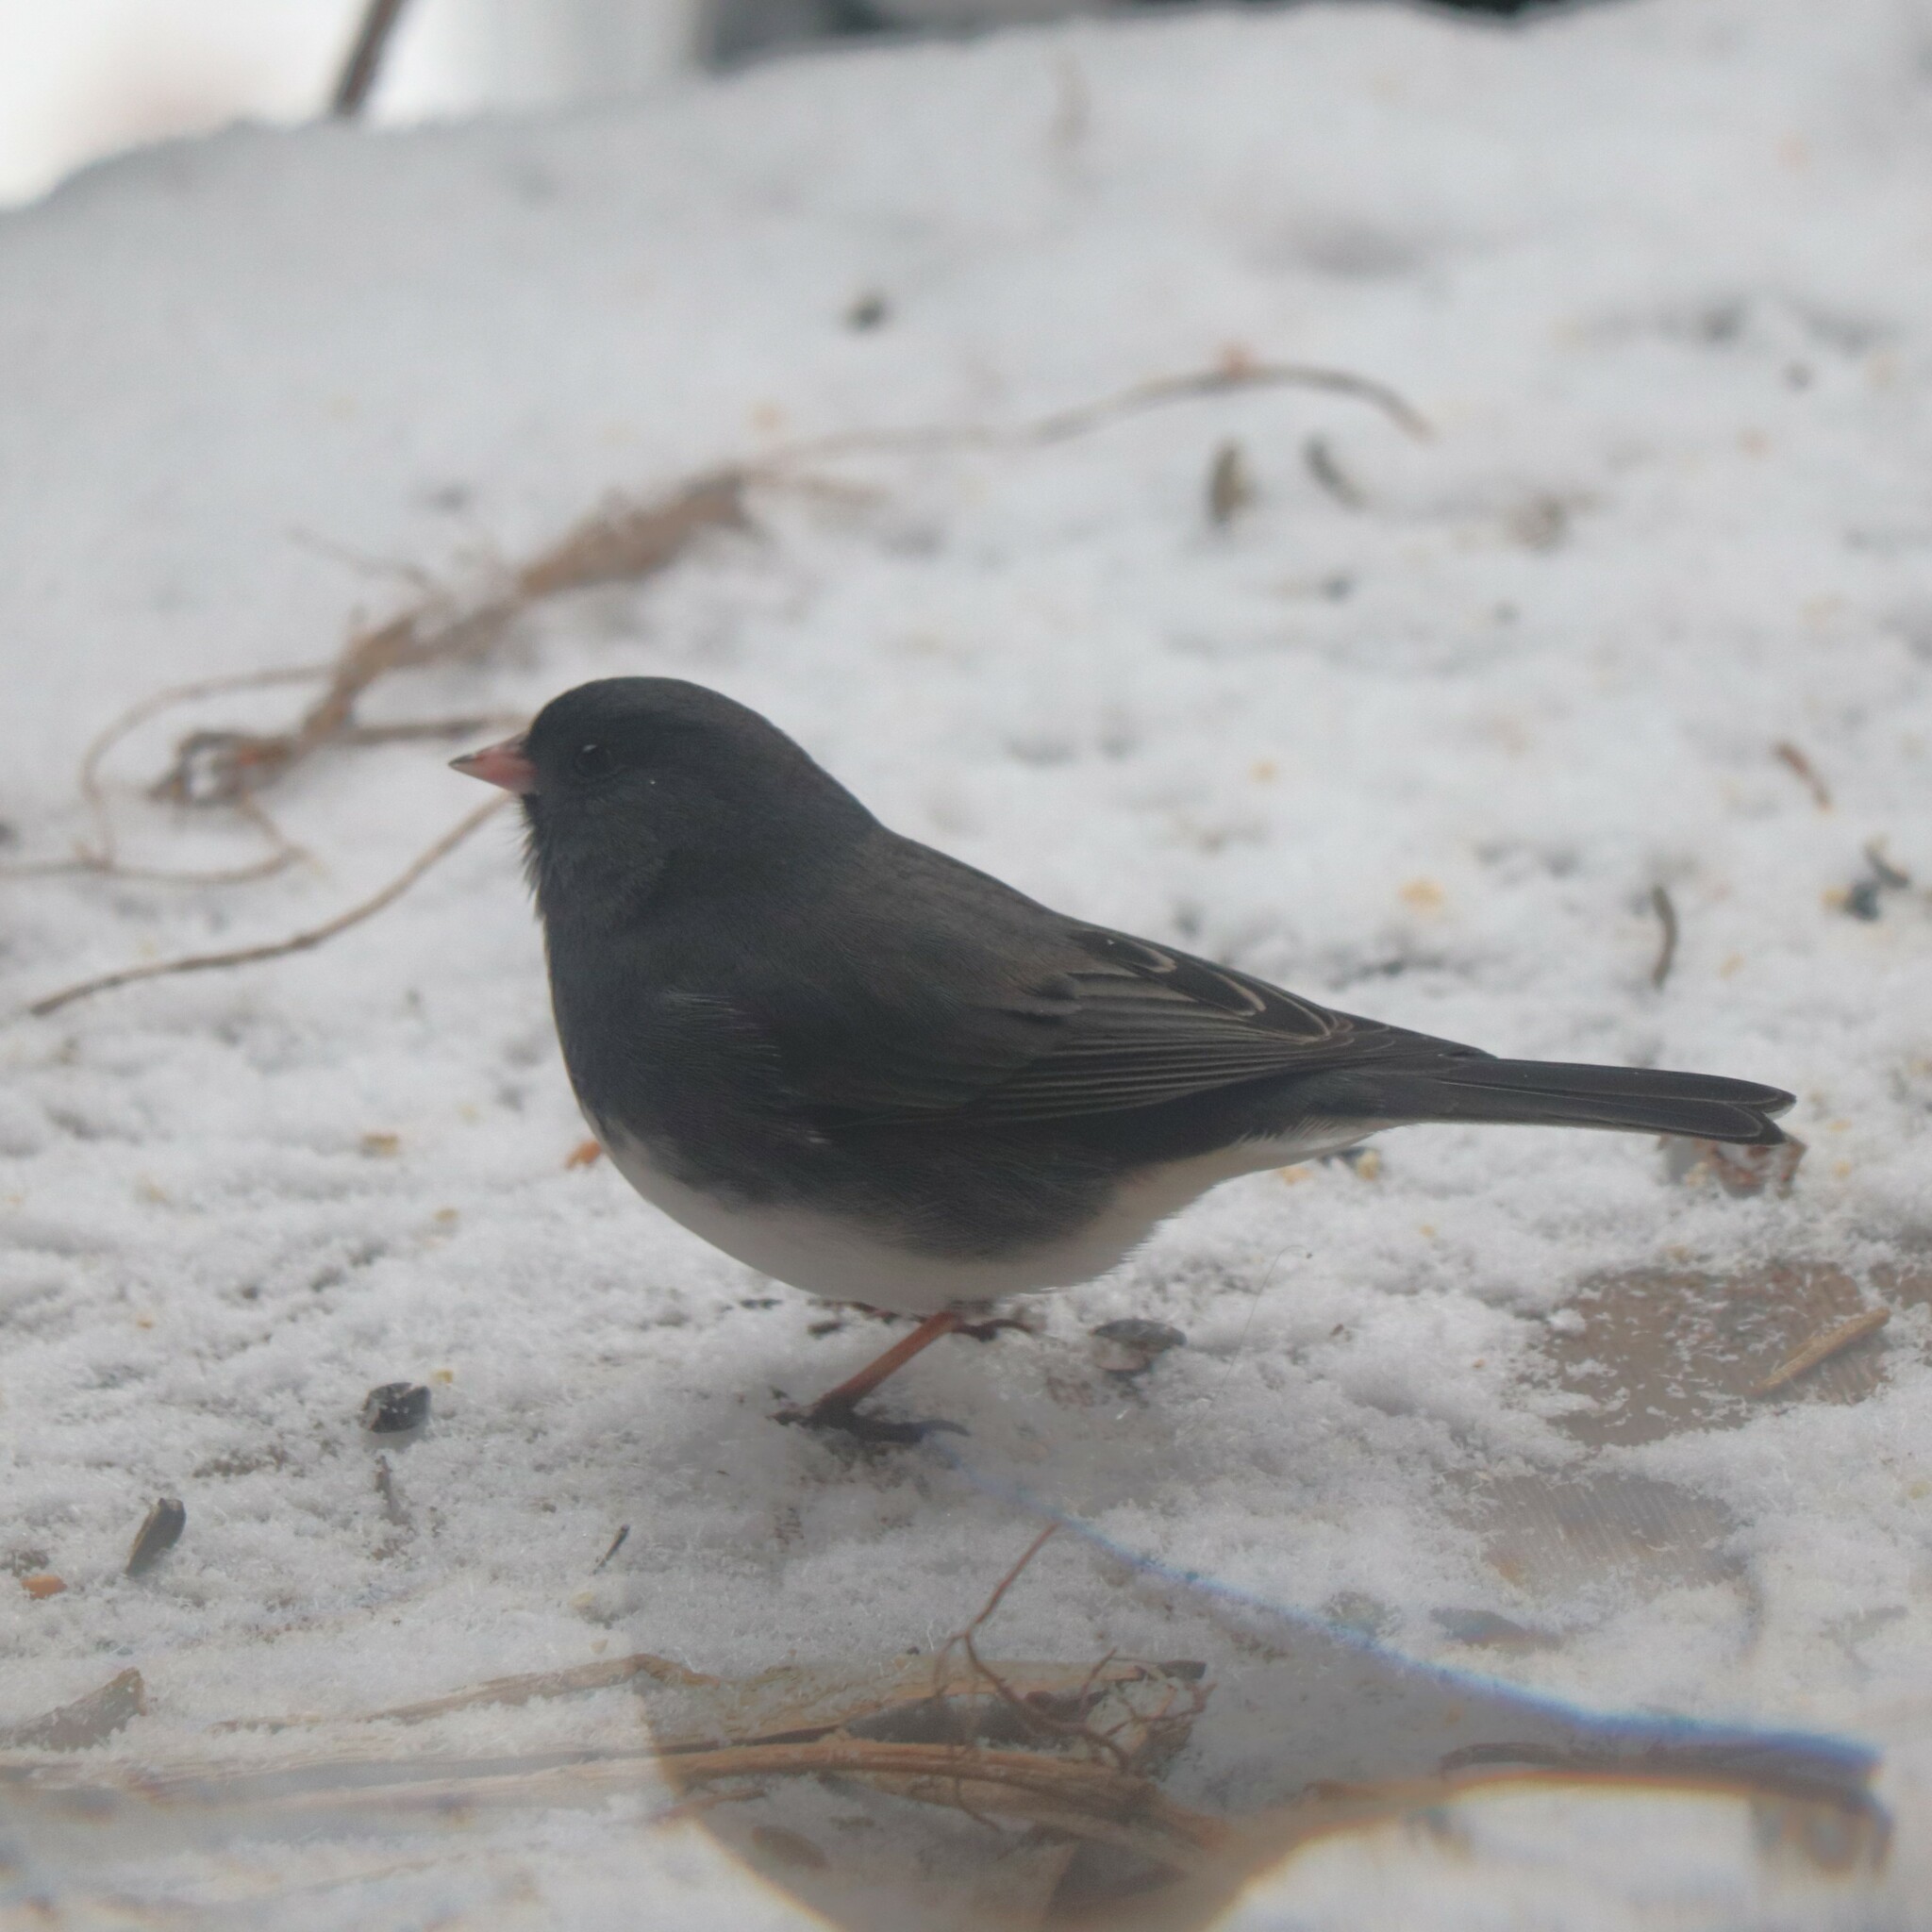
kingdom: Animalia
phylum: Chordata
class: Aves
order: Passeriformes
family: Passerellidae
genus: Junco
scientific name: Junco hyemalis
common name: Dark-eyed junco
